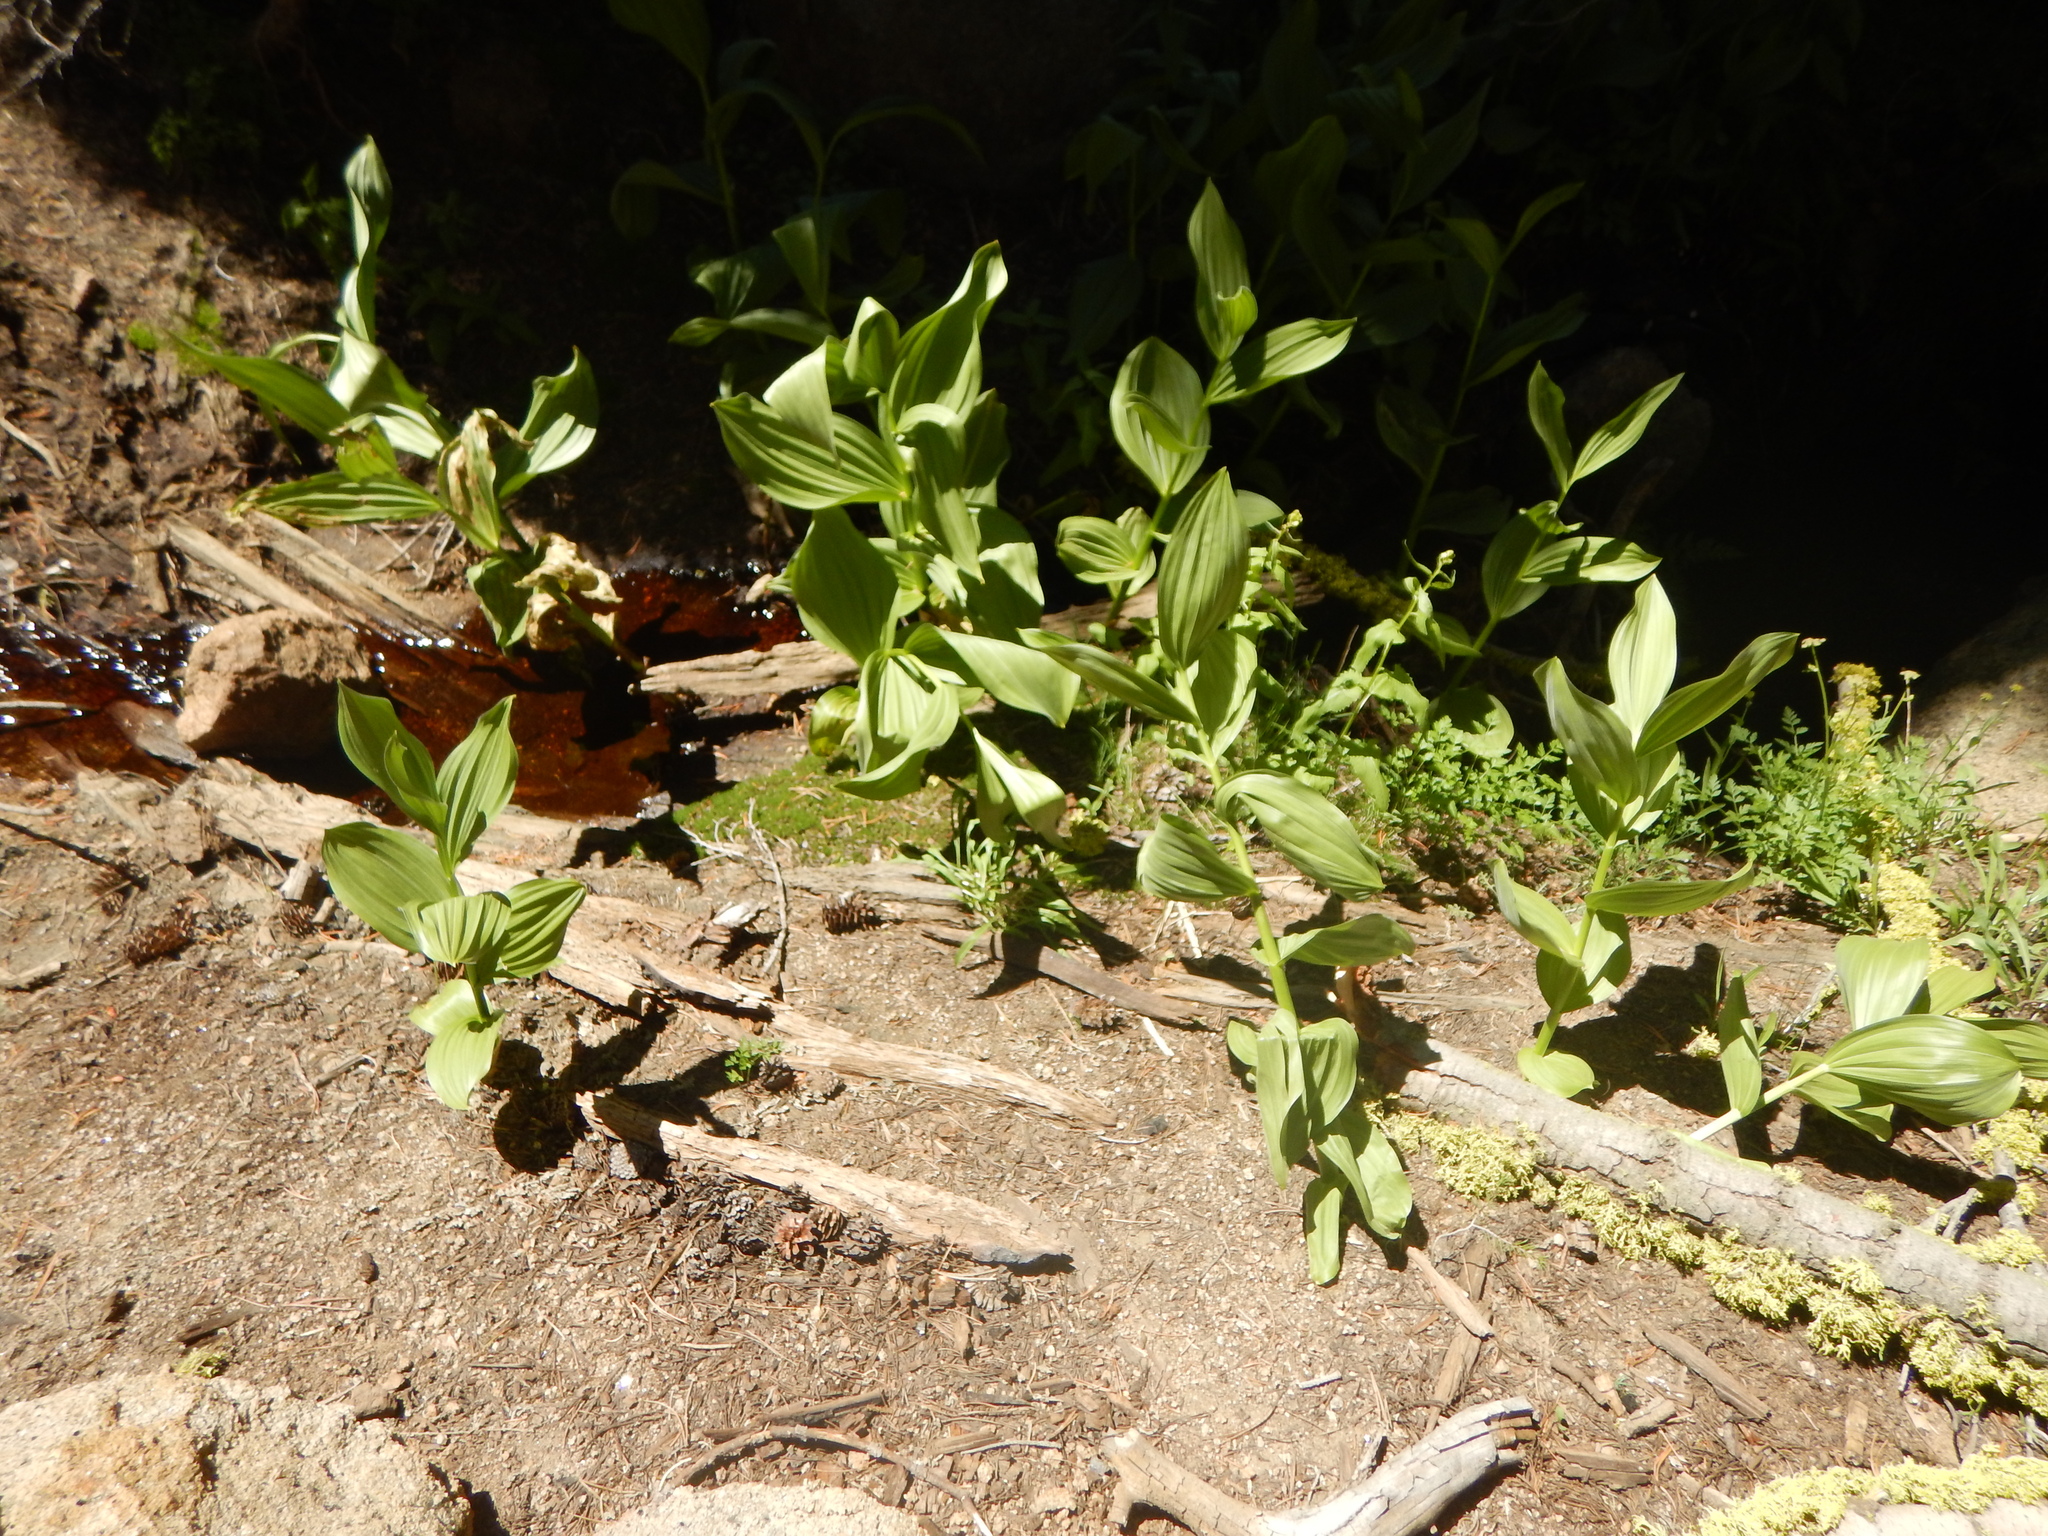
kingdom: Plantae
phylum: Tracheophyta
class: Liliopsida
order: Liliales
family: Melanthiaceae
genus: Veratrum
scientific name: Veratrum californicum
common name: California veratrum
